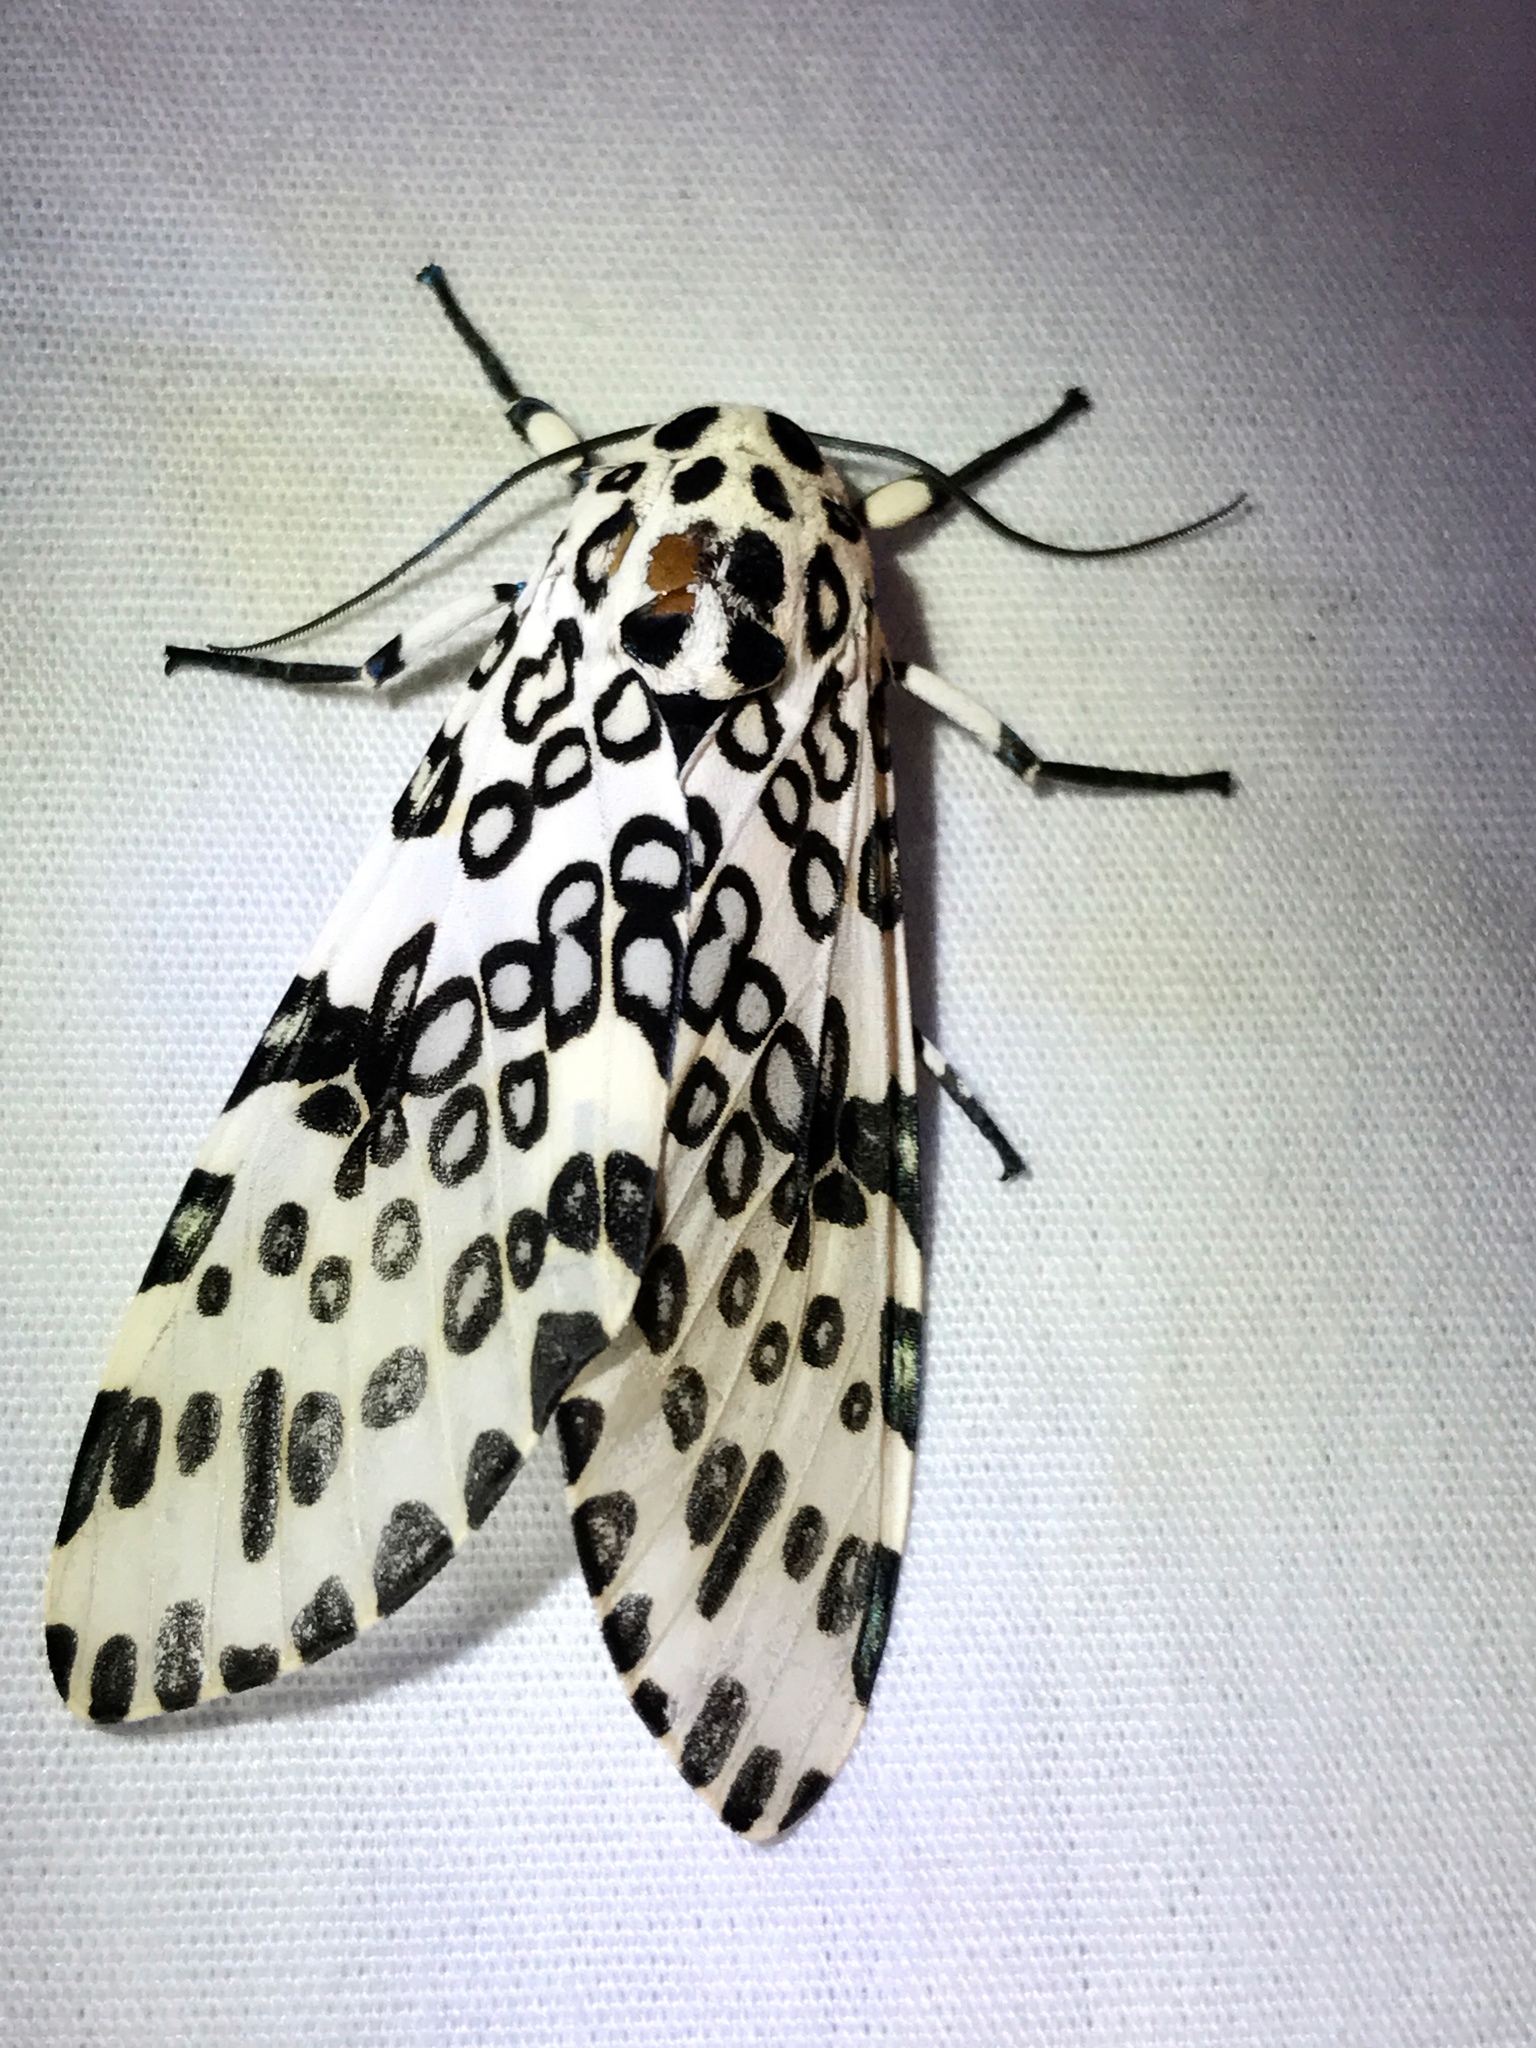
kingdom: Animalia
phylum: Arthropoda
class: Insecta
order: Lepidoptera
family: Erebidae
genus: Hypercompe
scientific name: Hypercompe scribonia
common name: Giant leopard moth
